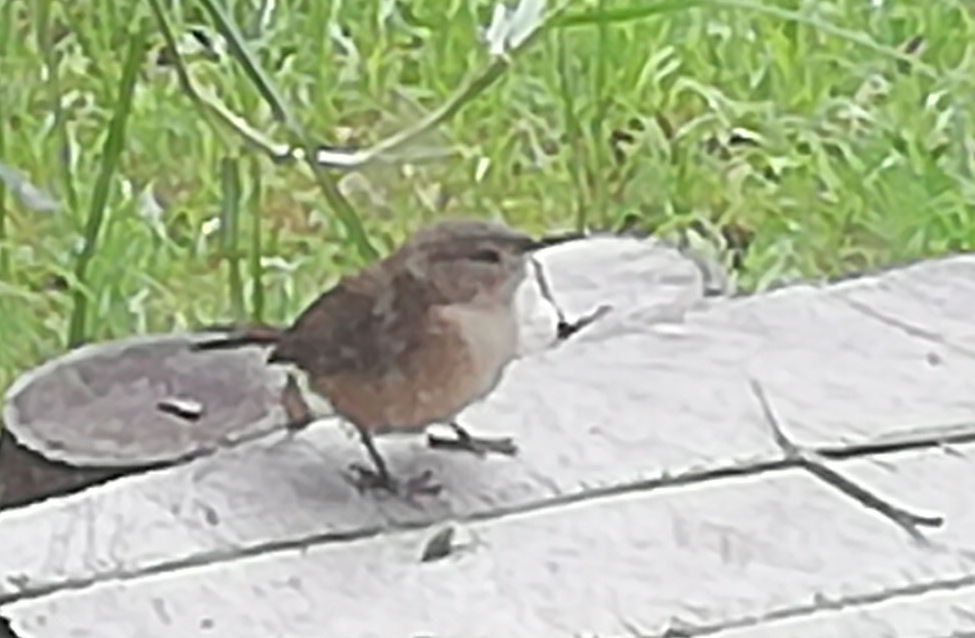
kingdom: Animalia
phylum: Chordata
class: Aves
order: Passeriformes
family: Troglodytidae
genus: Troglodytes
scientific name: Troglodytes aedon
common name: House wren
